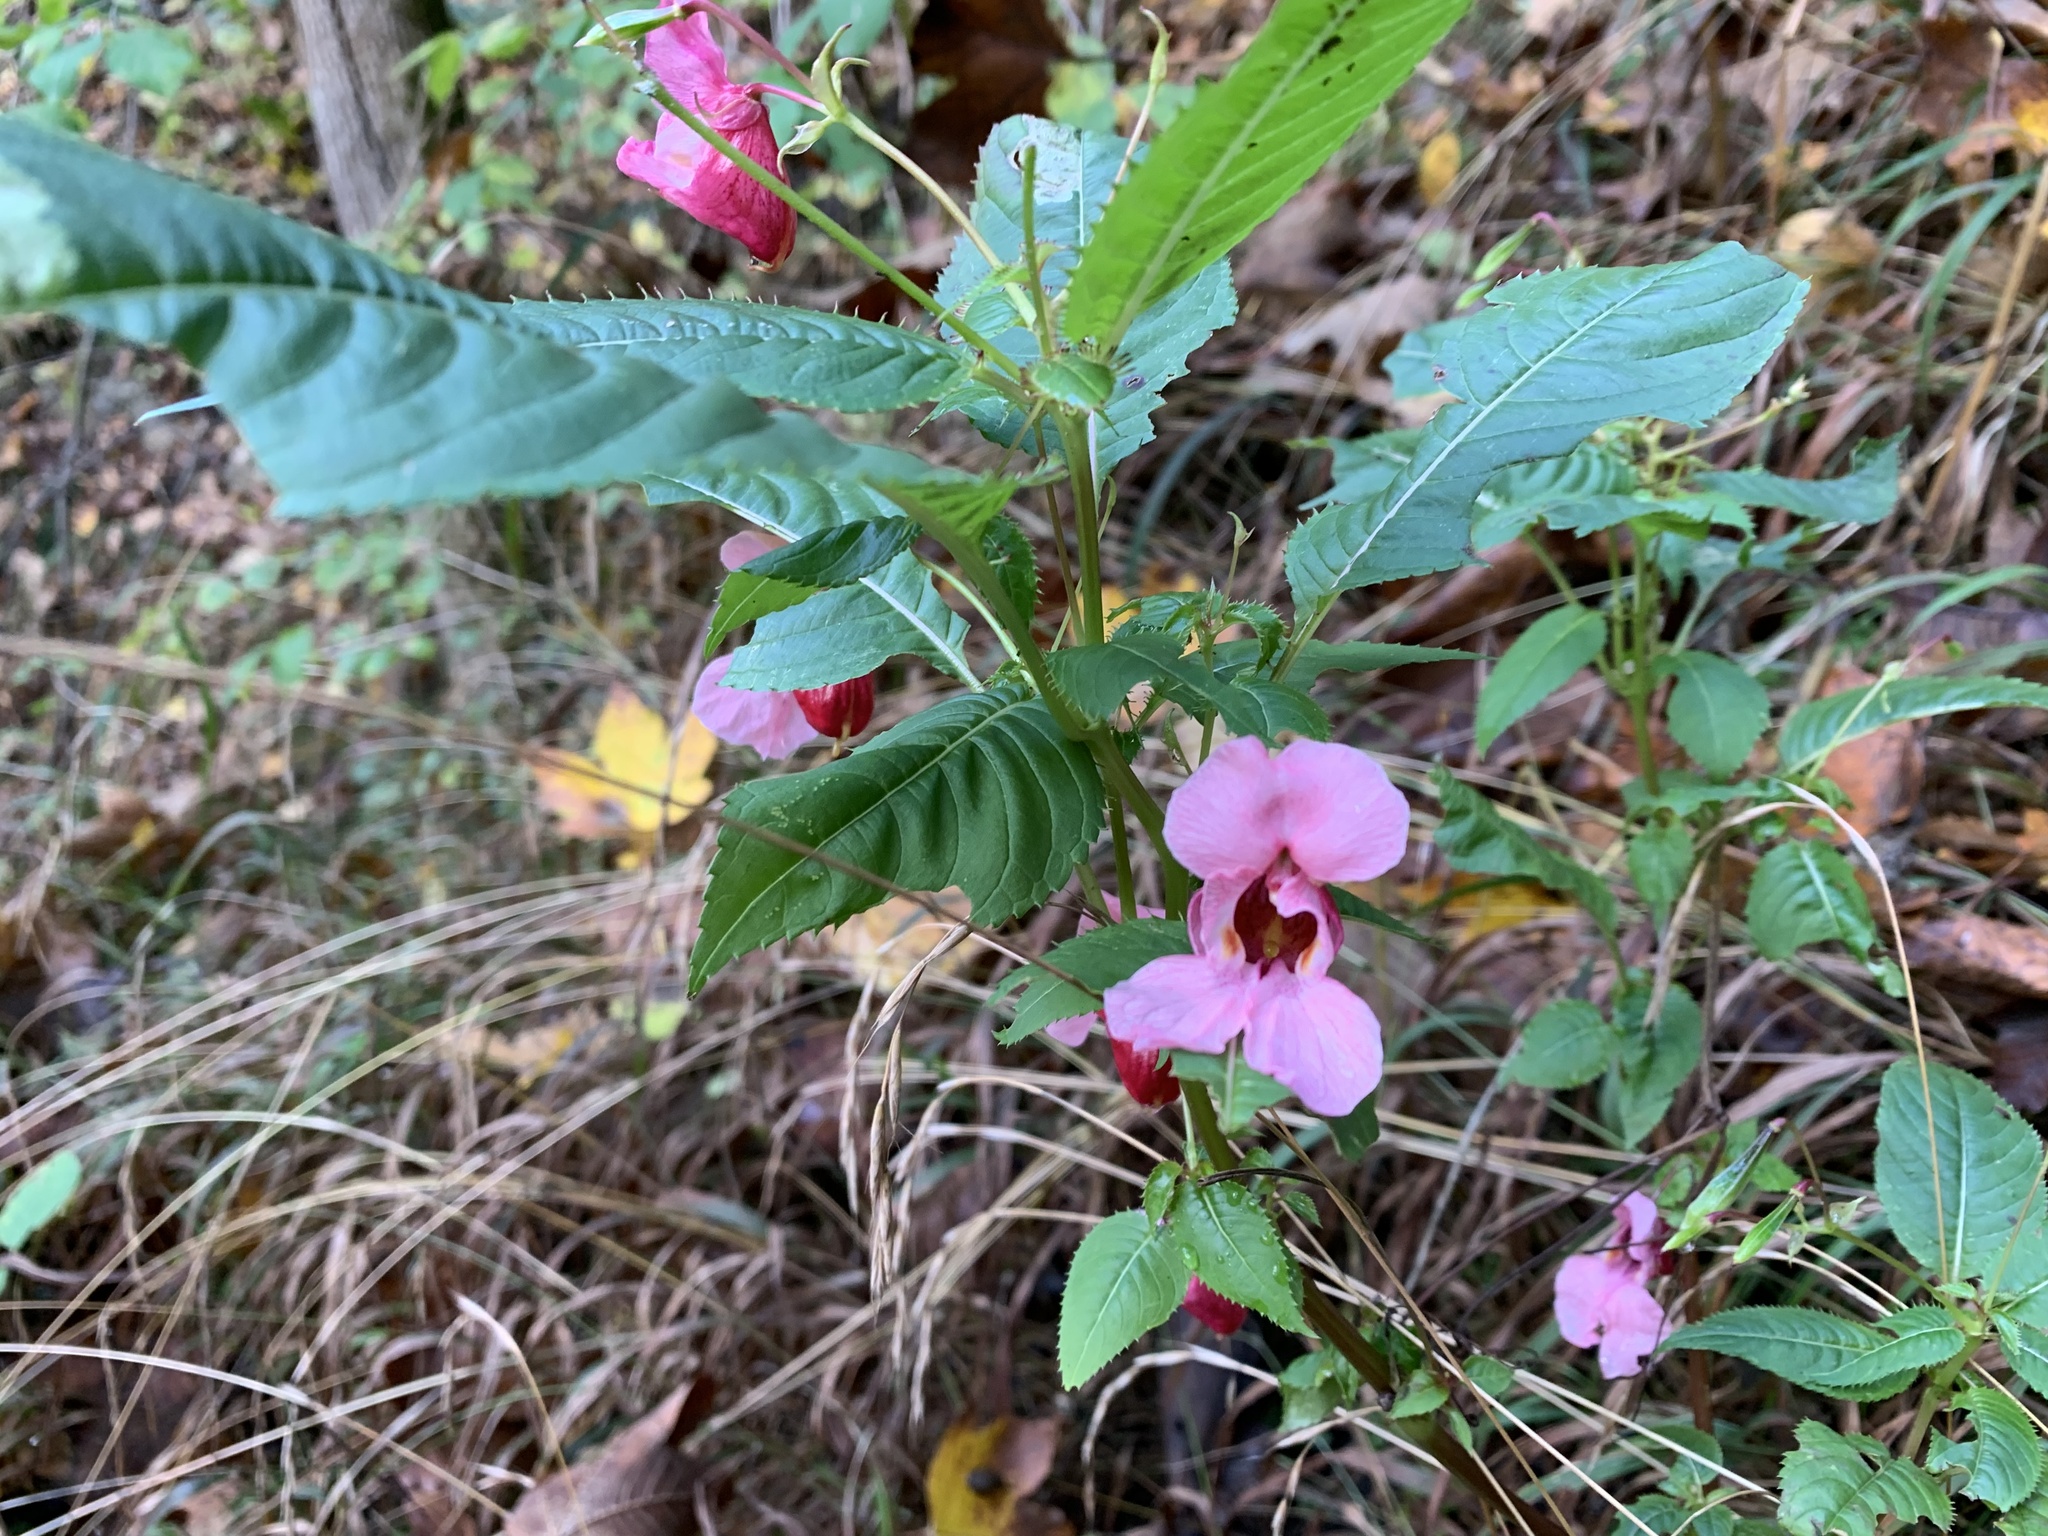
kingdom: Plantae
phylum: Tracheophyta
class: Magnoliopsida
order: Ericales
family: Balsaminaceae
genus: Impatiens
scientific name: Impatiens glandulifera
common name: Himalayan balsam
